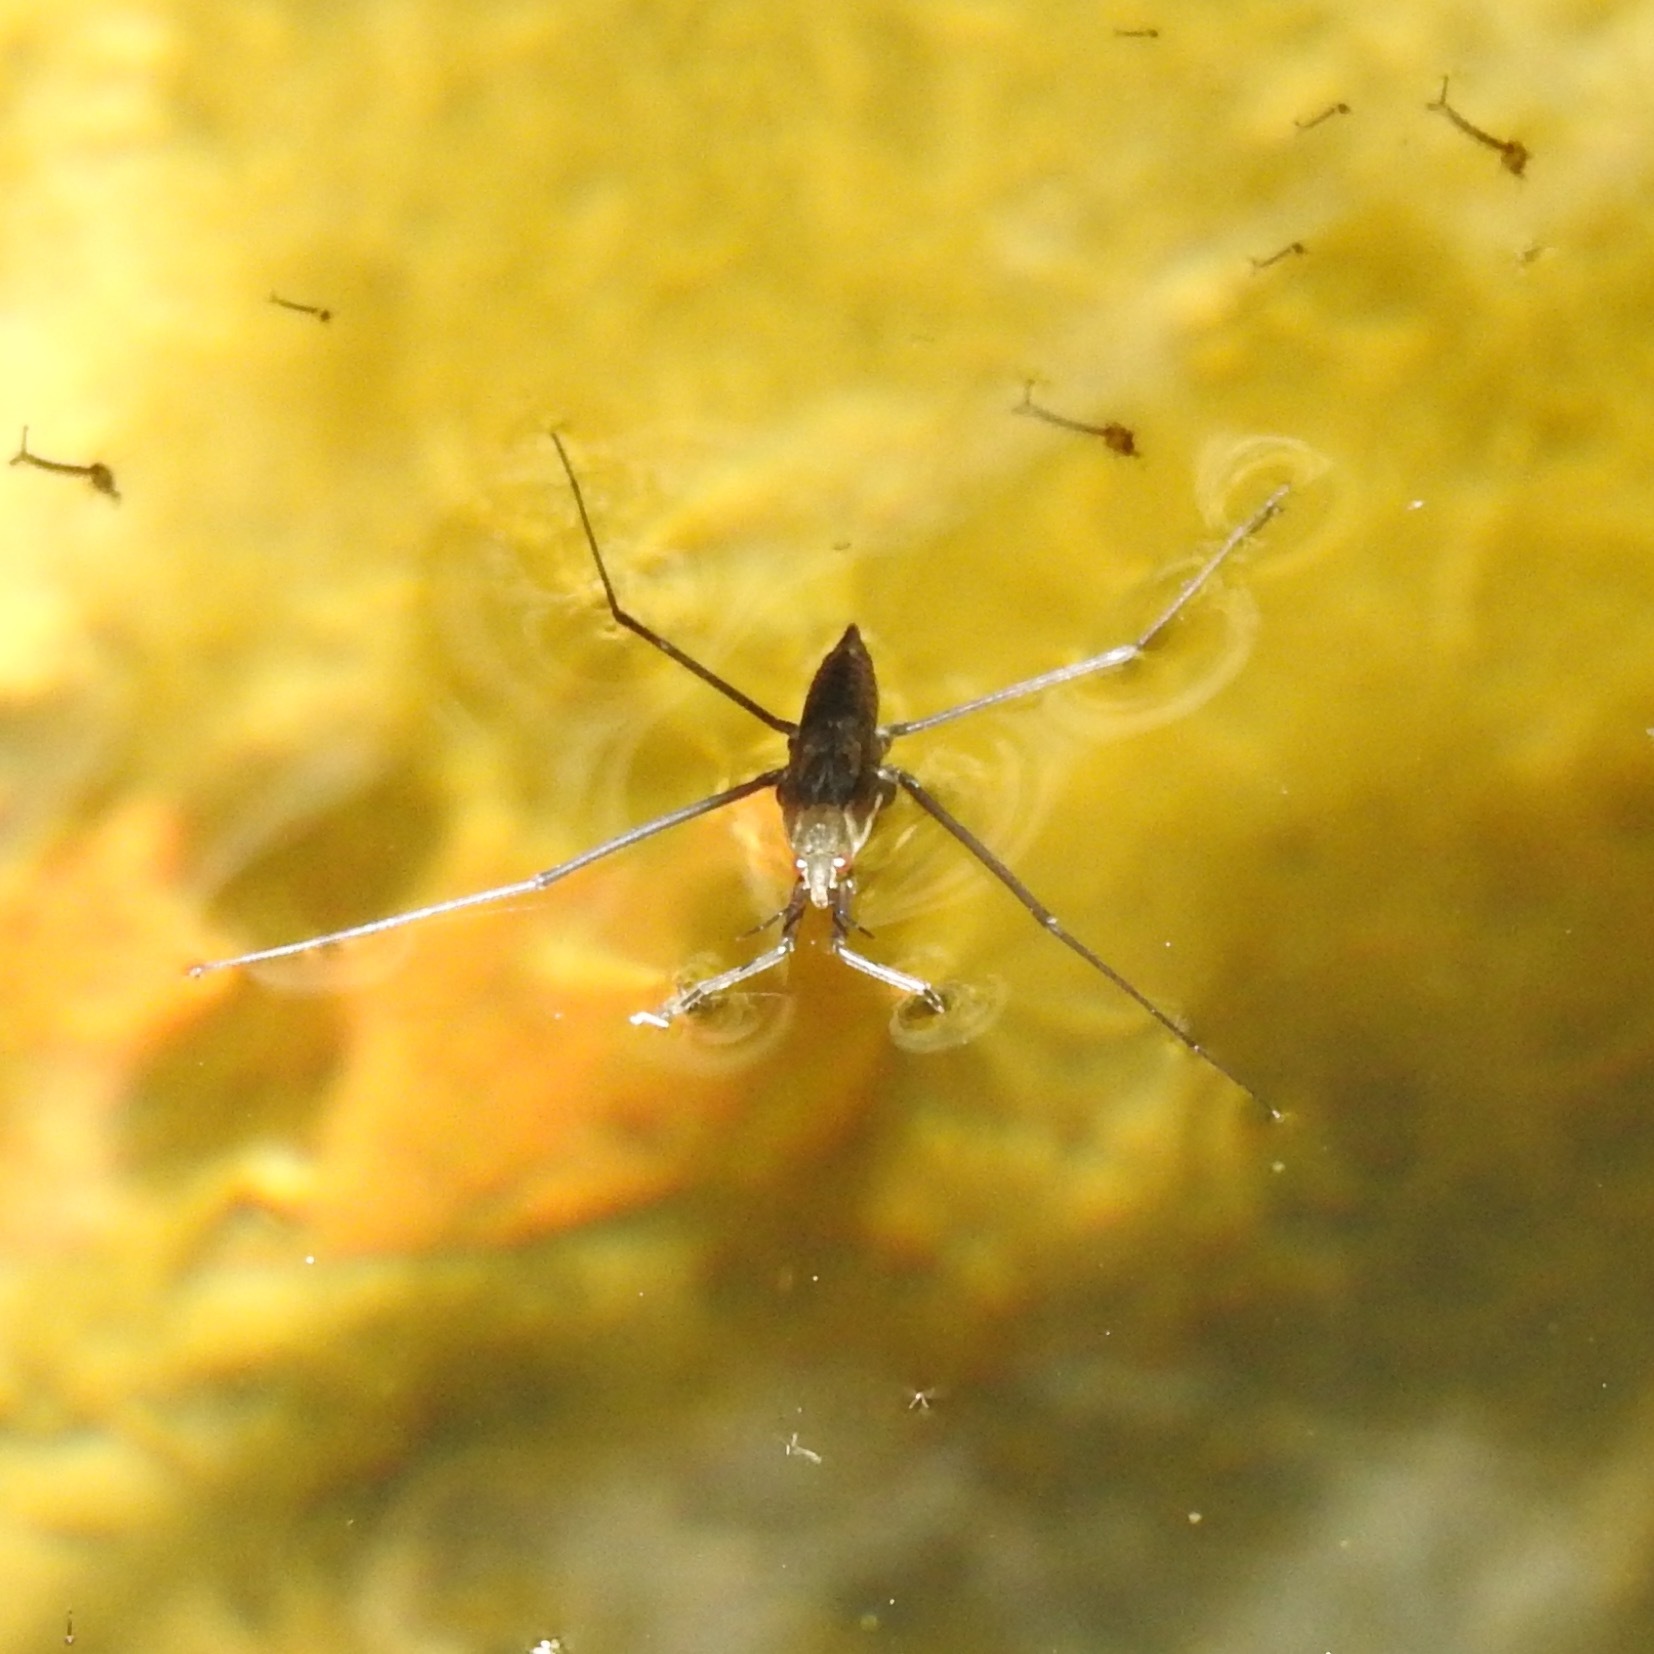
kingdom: Animalia
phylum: Arthropoda
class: Insecta
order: Hemiptera
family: Gerridae
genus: Aquarius
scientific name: Aquarius remigis
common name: Common water strider
